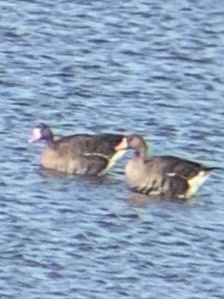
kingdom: Animalia
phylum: Chordata
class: Aves
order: Anseriformes
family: Anatidae
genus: Anser
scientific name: Anser albifrons
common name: Greater white-fronted goose
